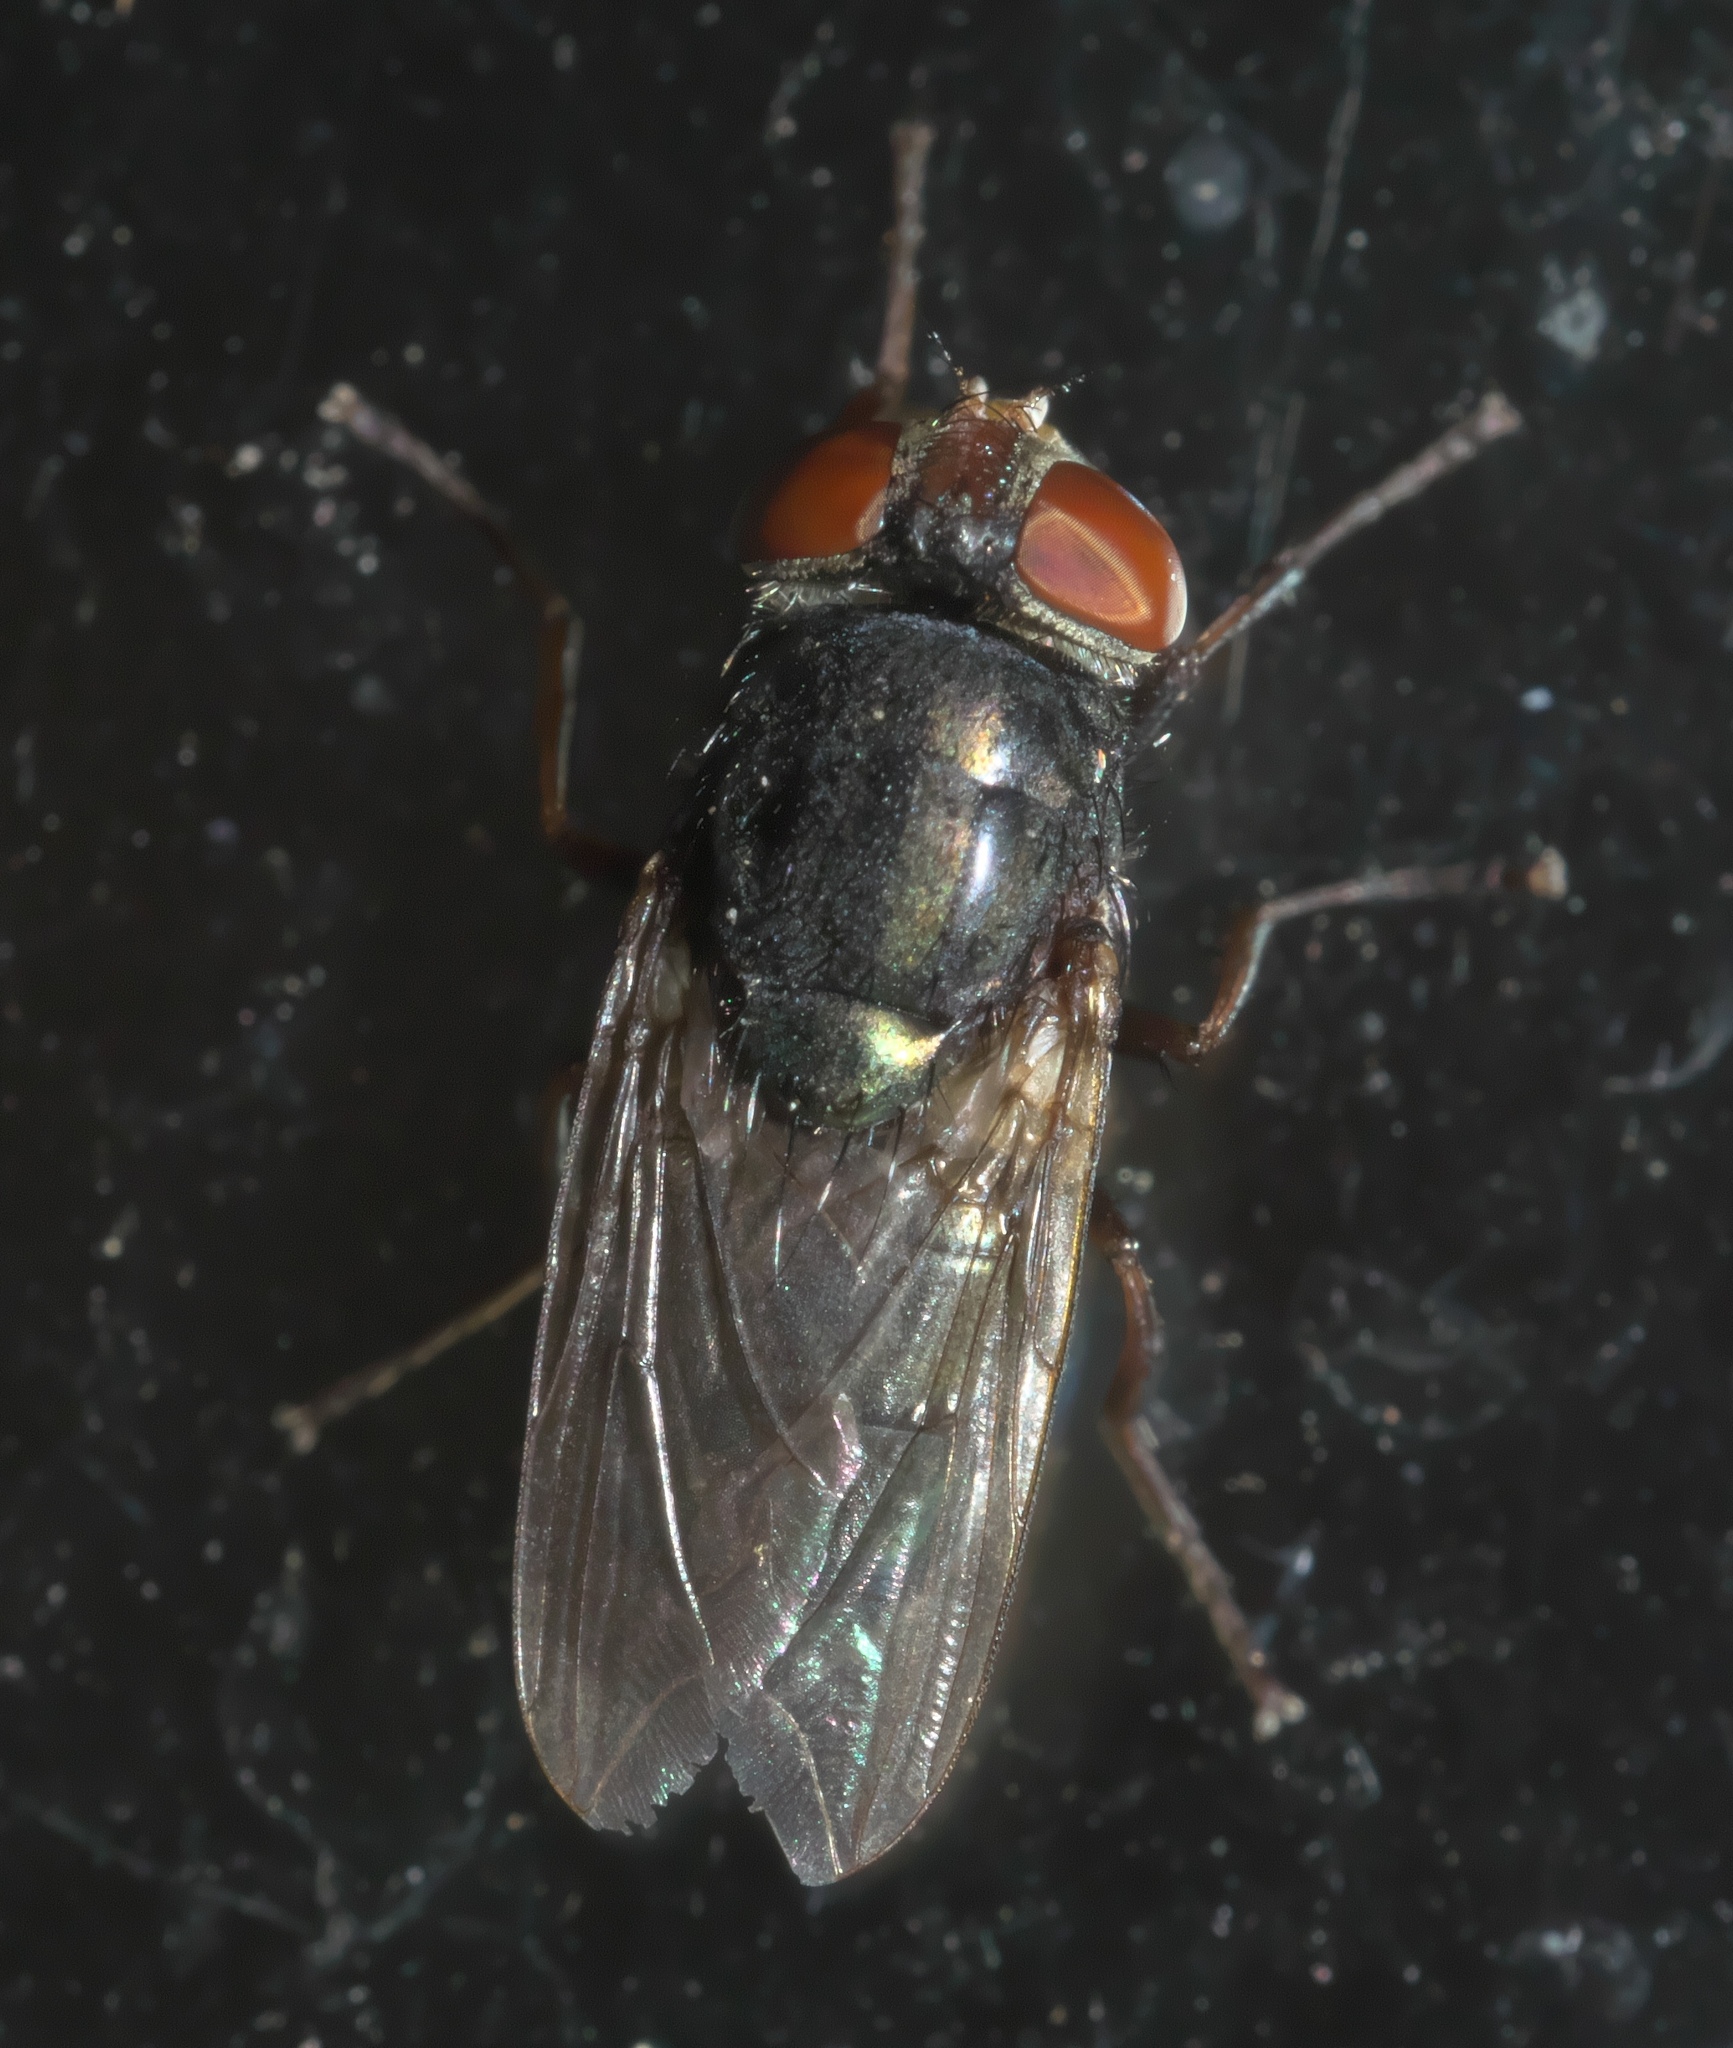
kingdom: Animalia
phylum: Arthropoda
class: Insecta
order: Diptera
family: Calliphoridae
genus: Cochliomyia
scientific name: Cochliomyia macellaria
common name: Secondary screwworm
